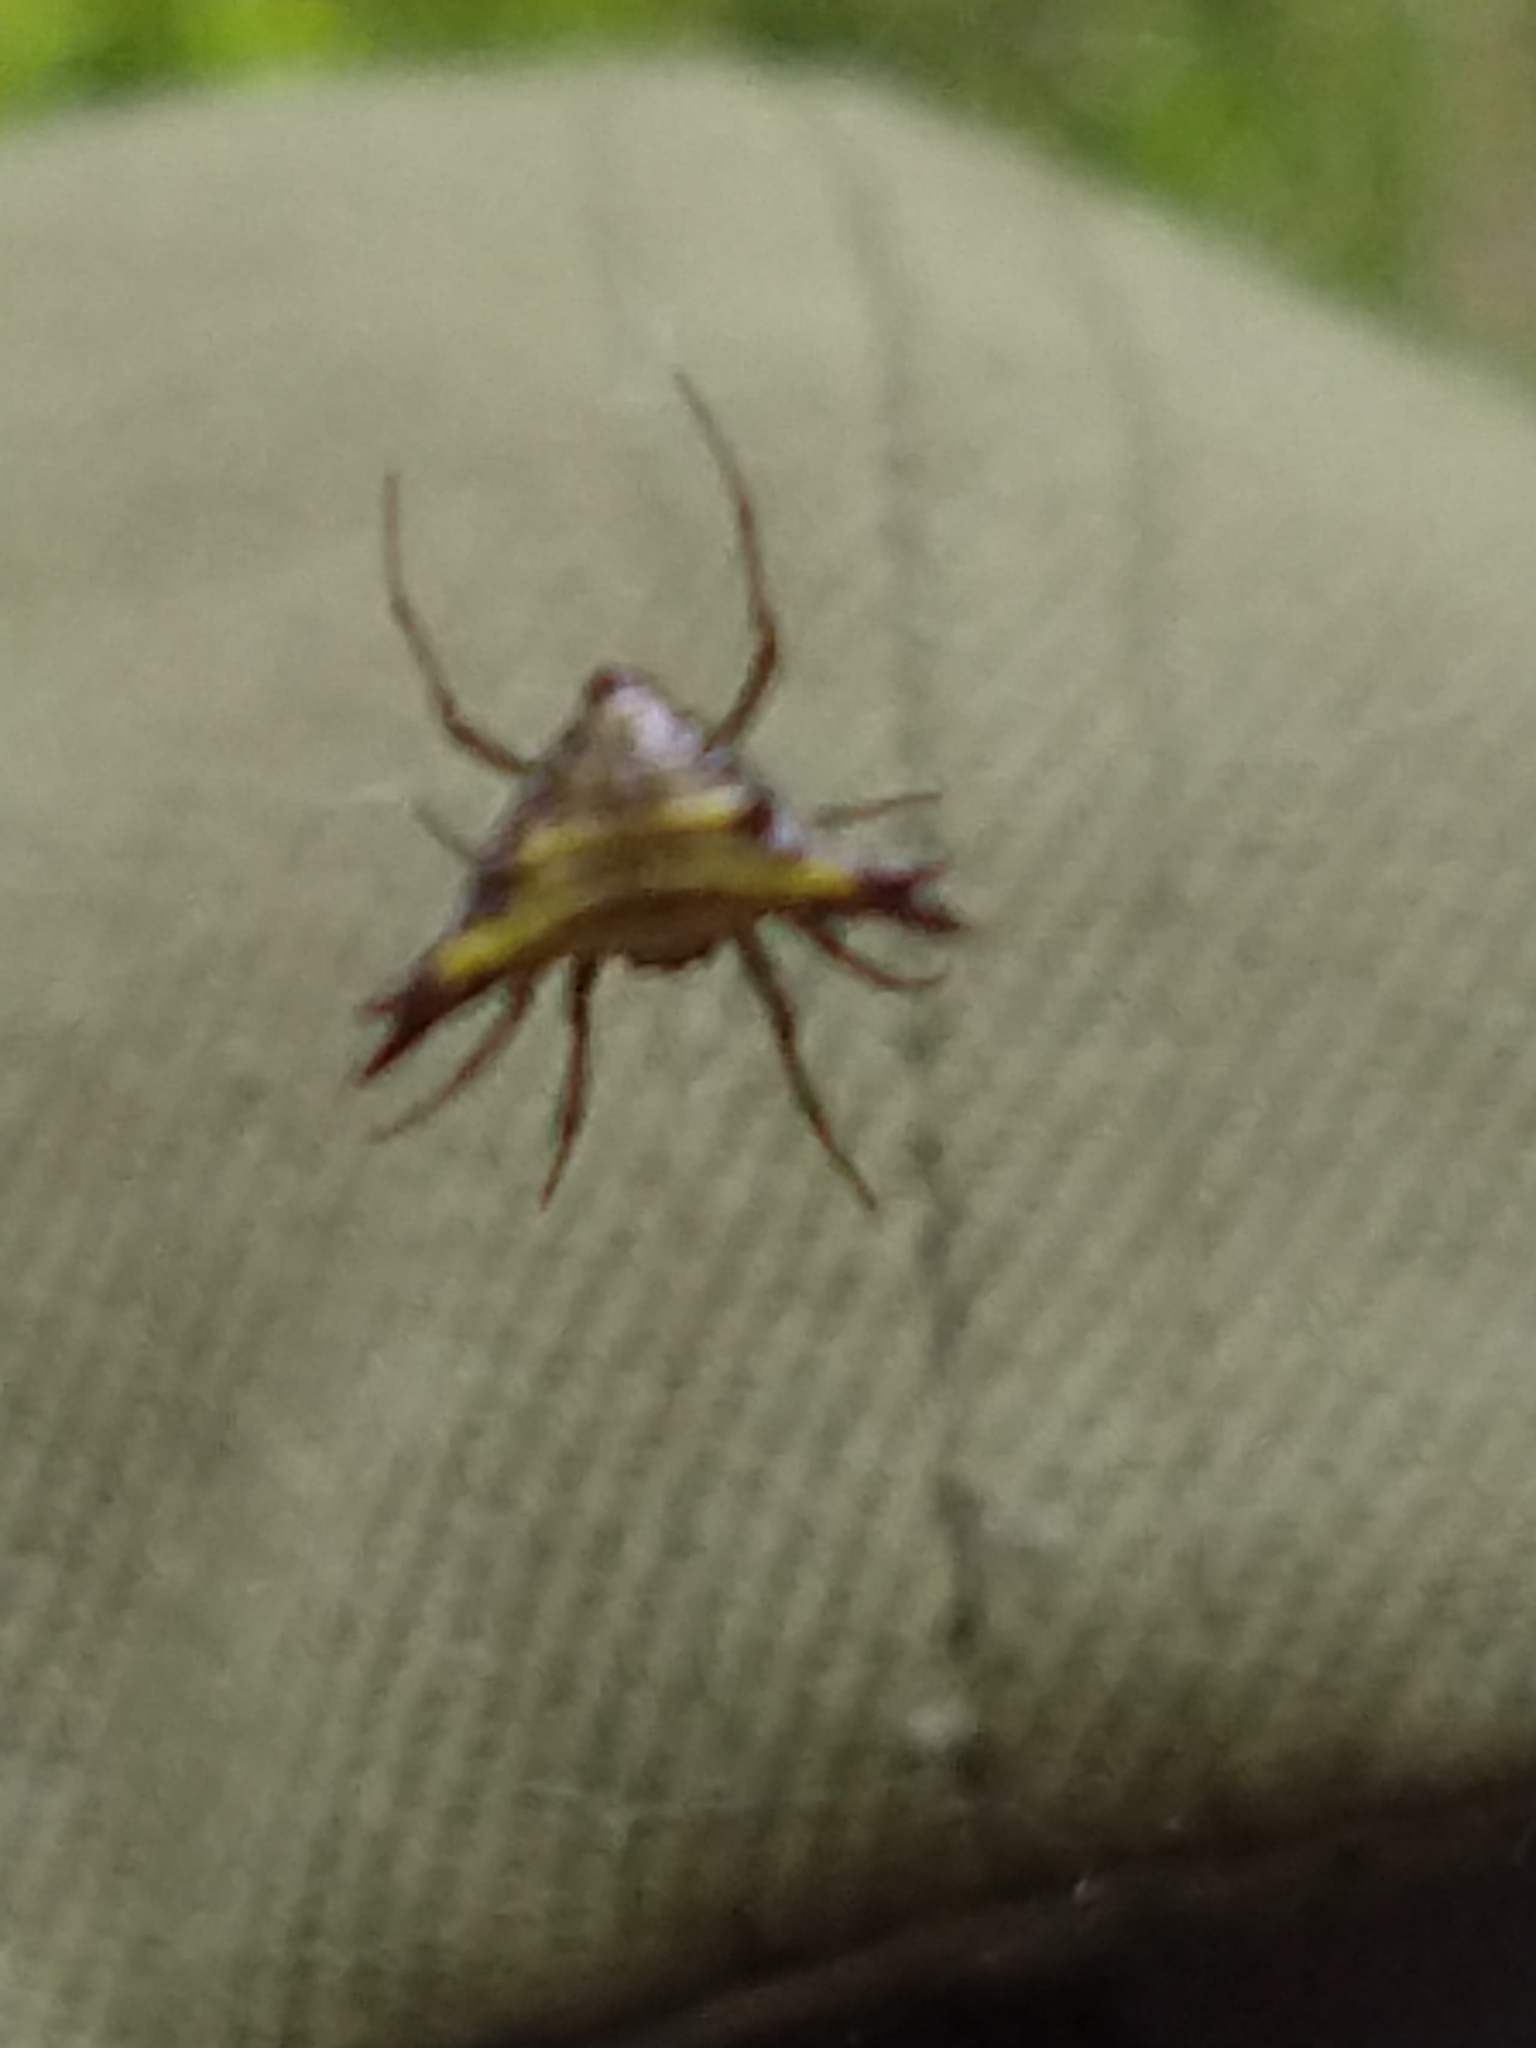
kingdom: Animalia
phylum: Arthropoda
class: Arachnida
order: Araneae
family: Araneidae
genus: Micrathena
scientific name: Micrathena furva
